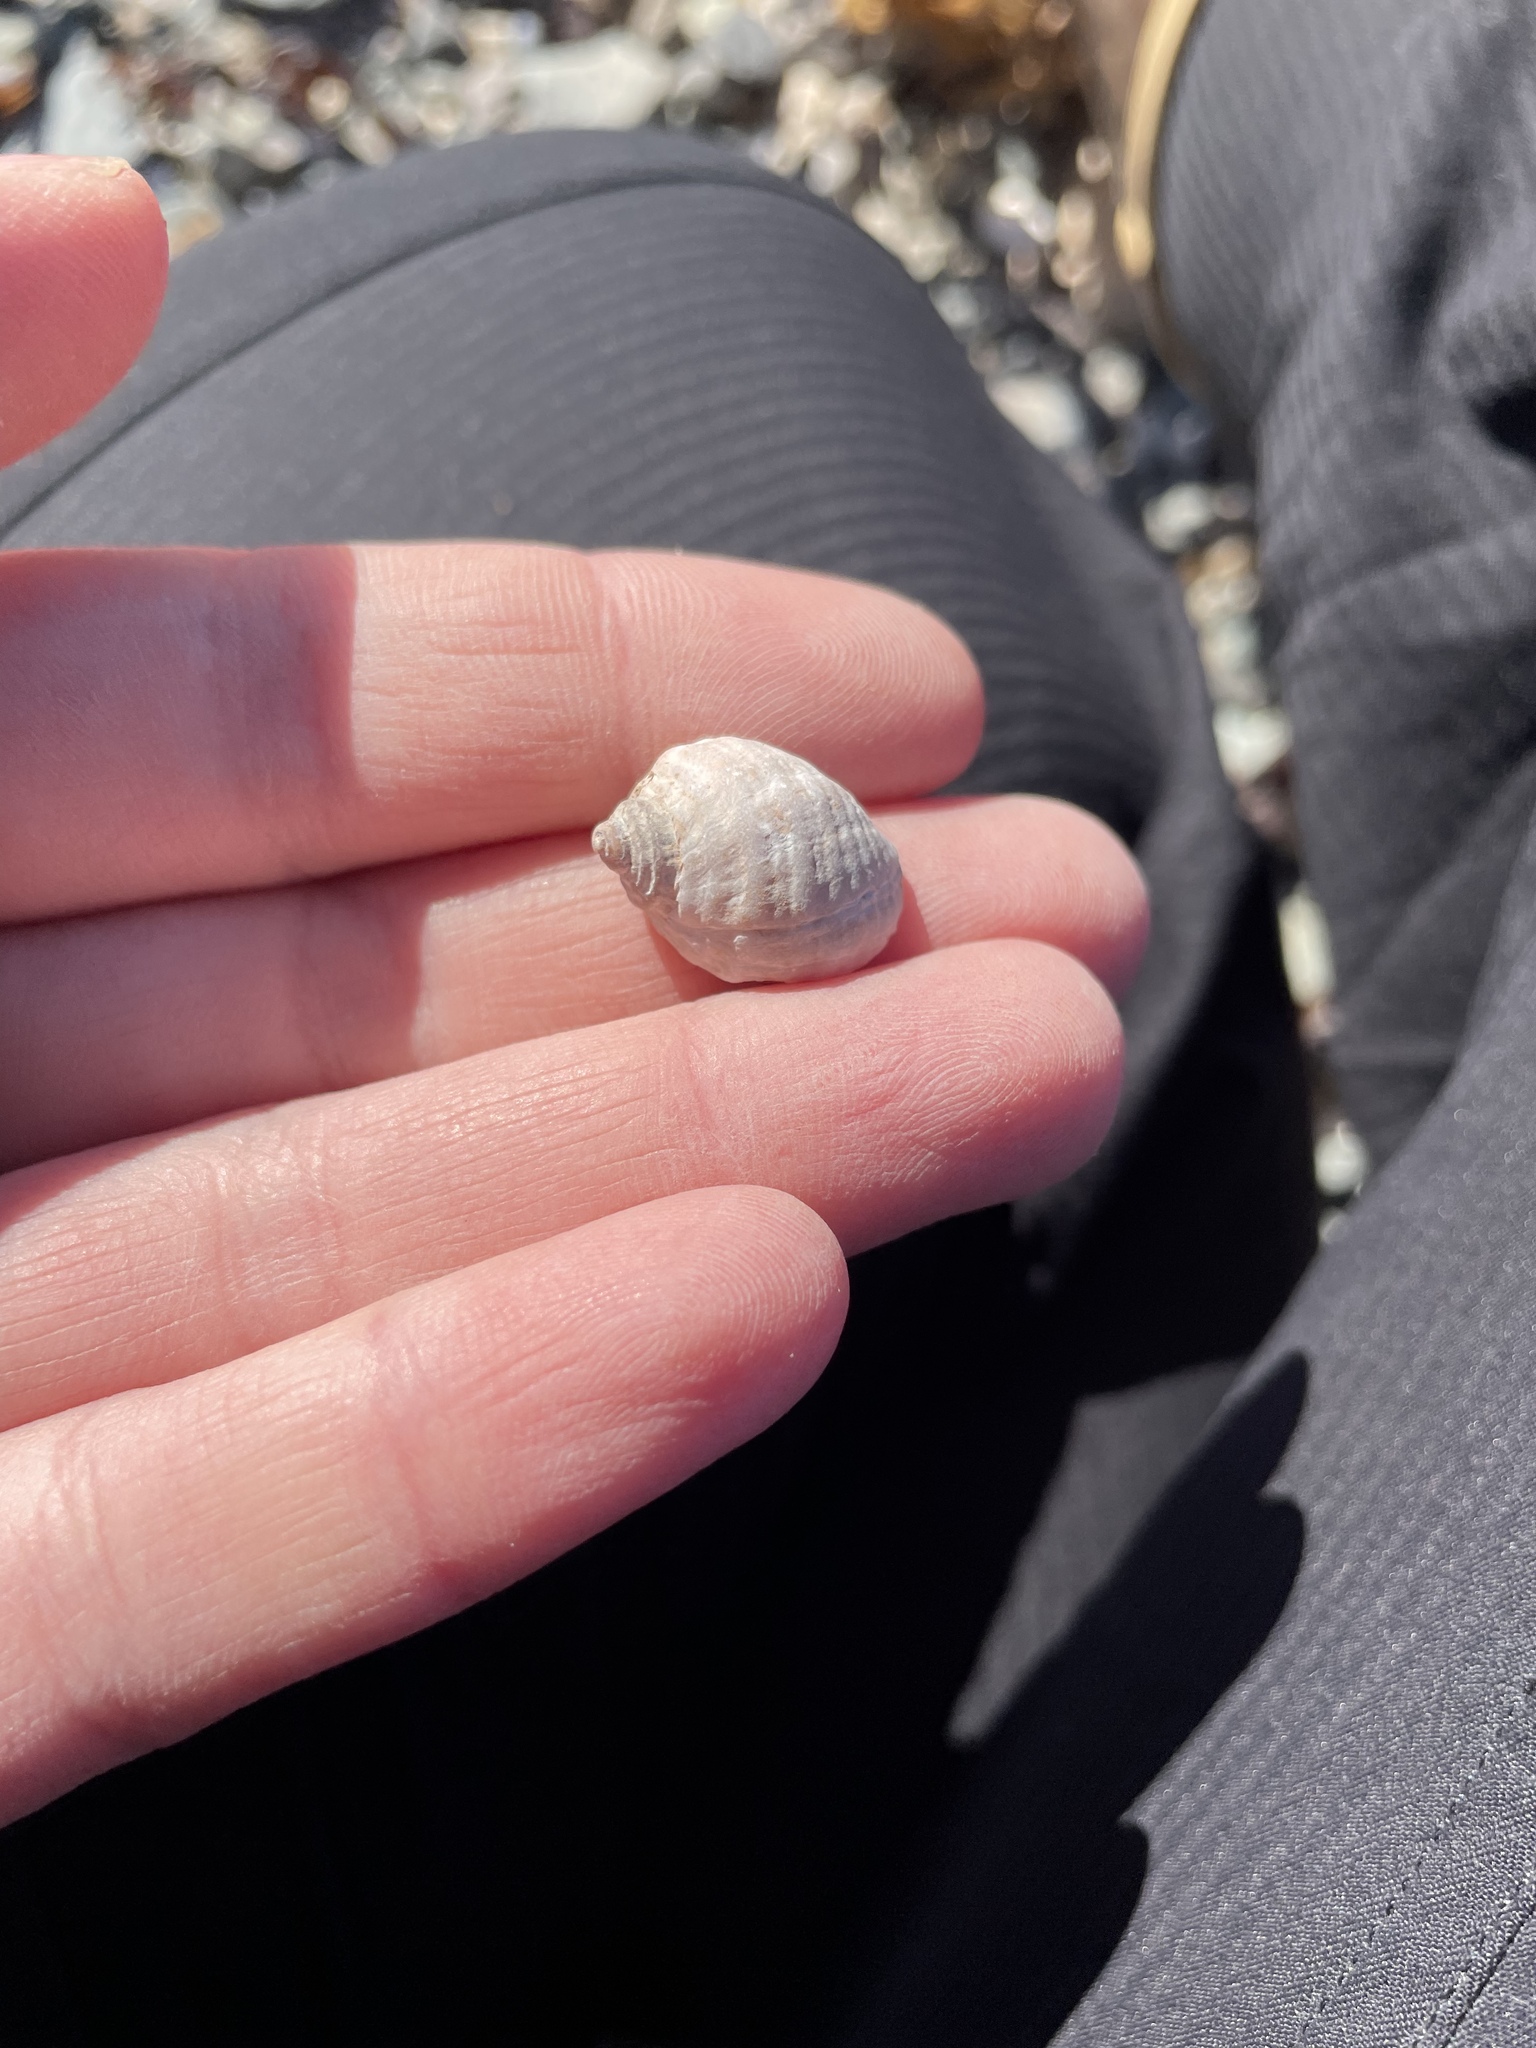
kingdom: Animalia
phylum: Mollusca
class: Gastropoda
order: Neogastropoda
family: Muricidae
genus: Nucella
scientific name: Nucella lapillus
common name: Dog whelk
